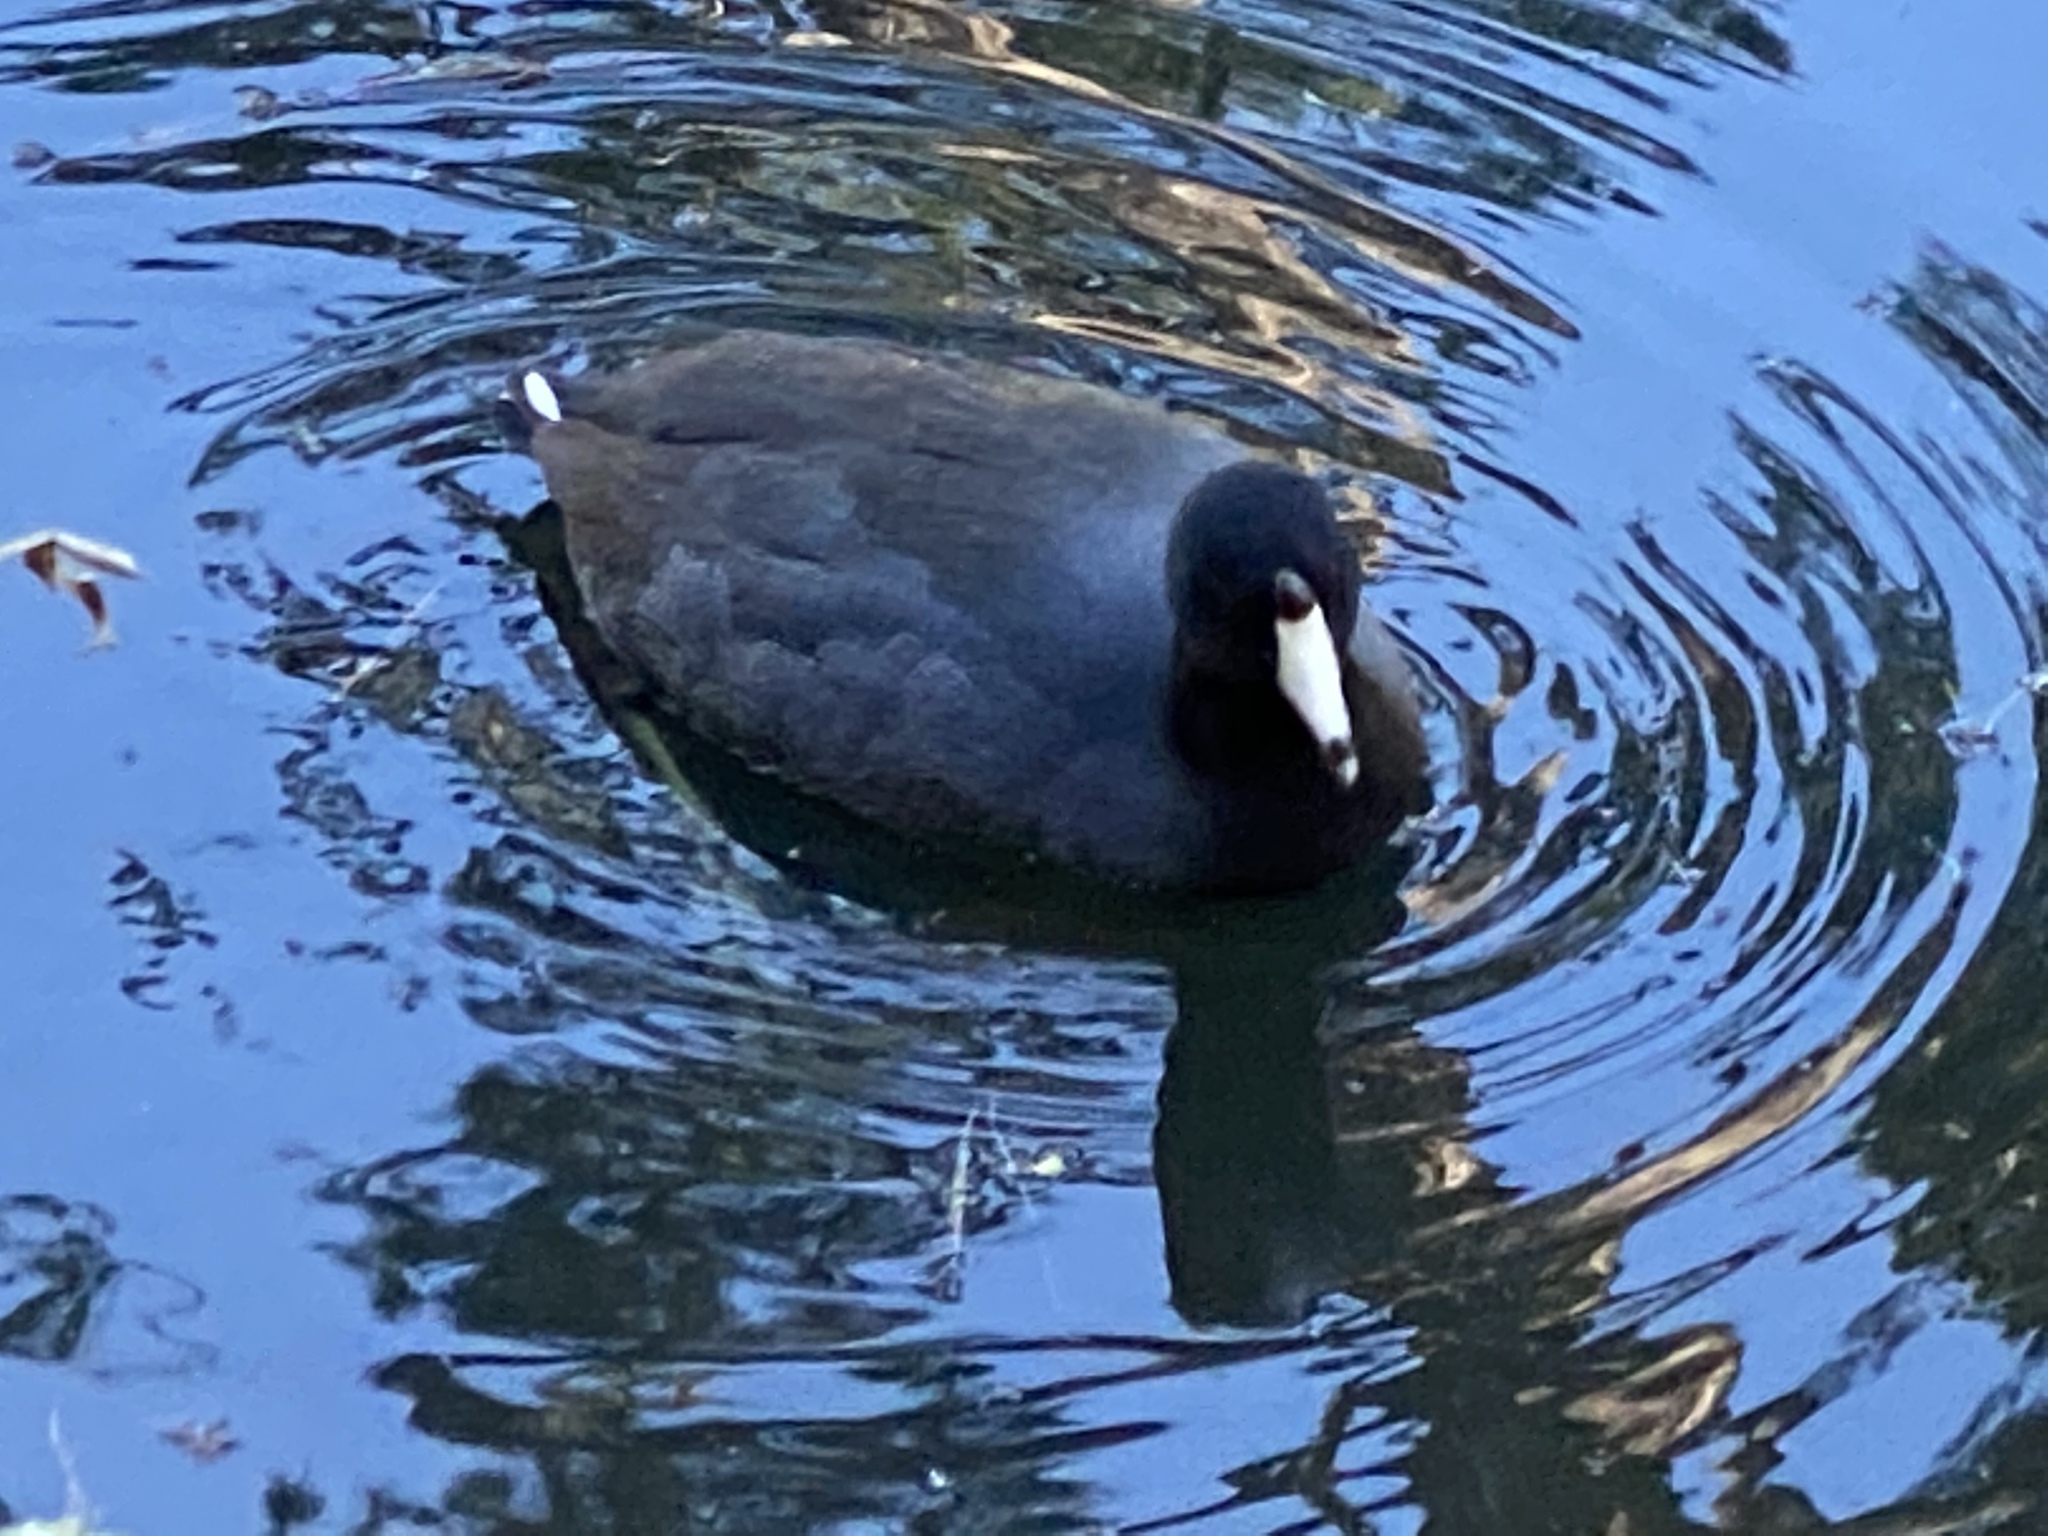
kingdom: Animalia
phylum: Chordata
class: Aves
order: Gruiformes
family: Rallidae
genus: Fulica
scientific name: Fulica americana
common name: American coot
